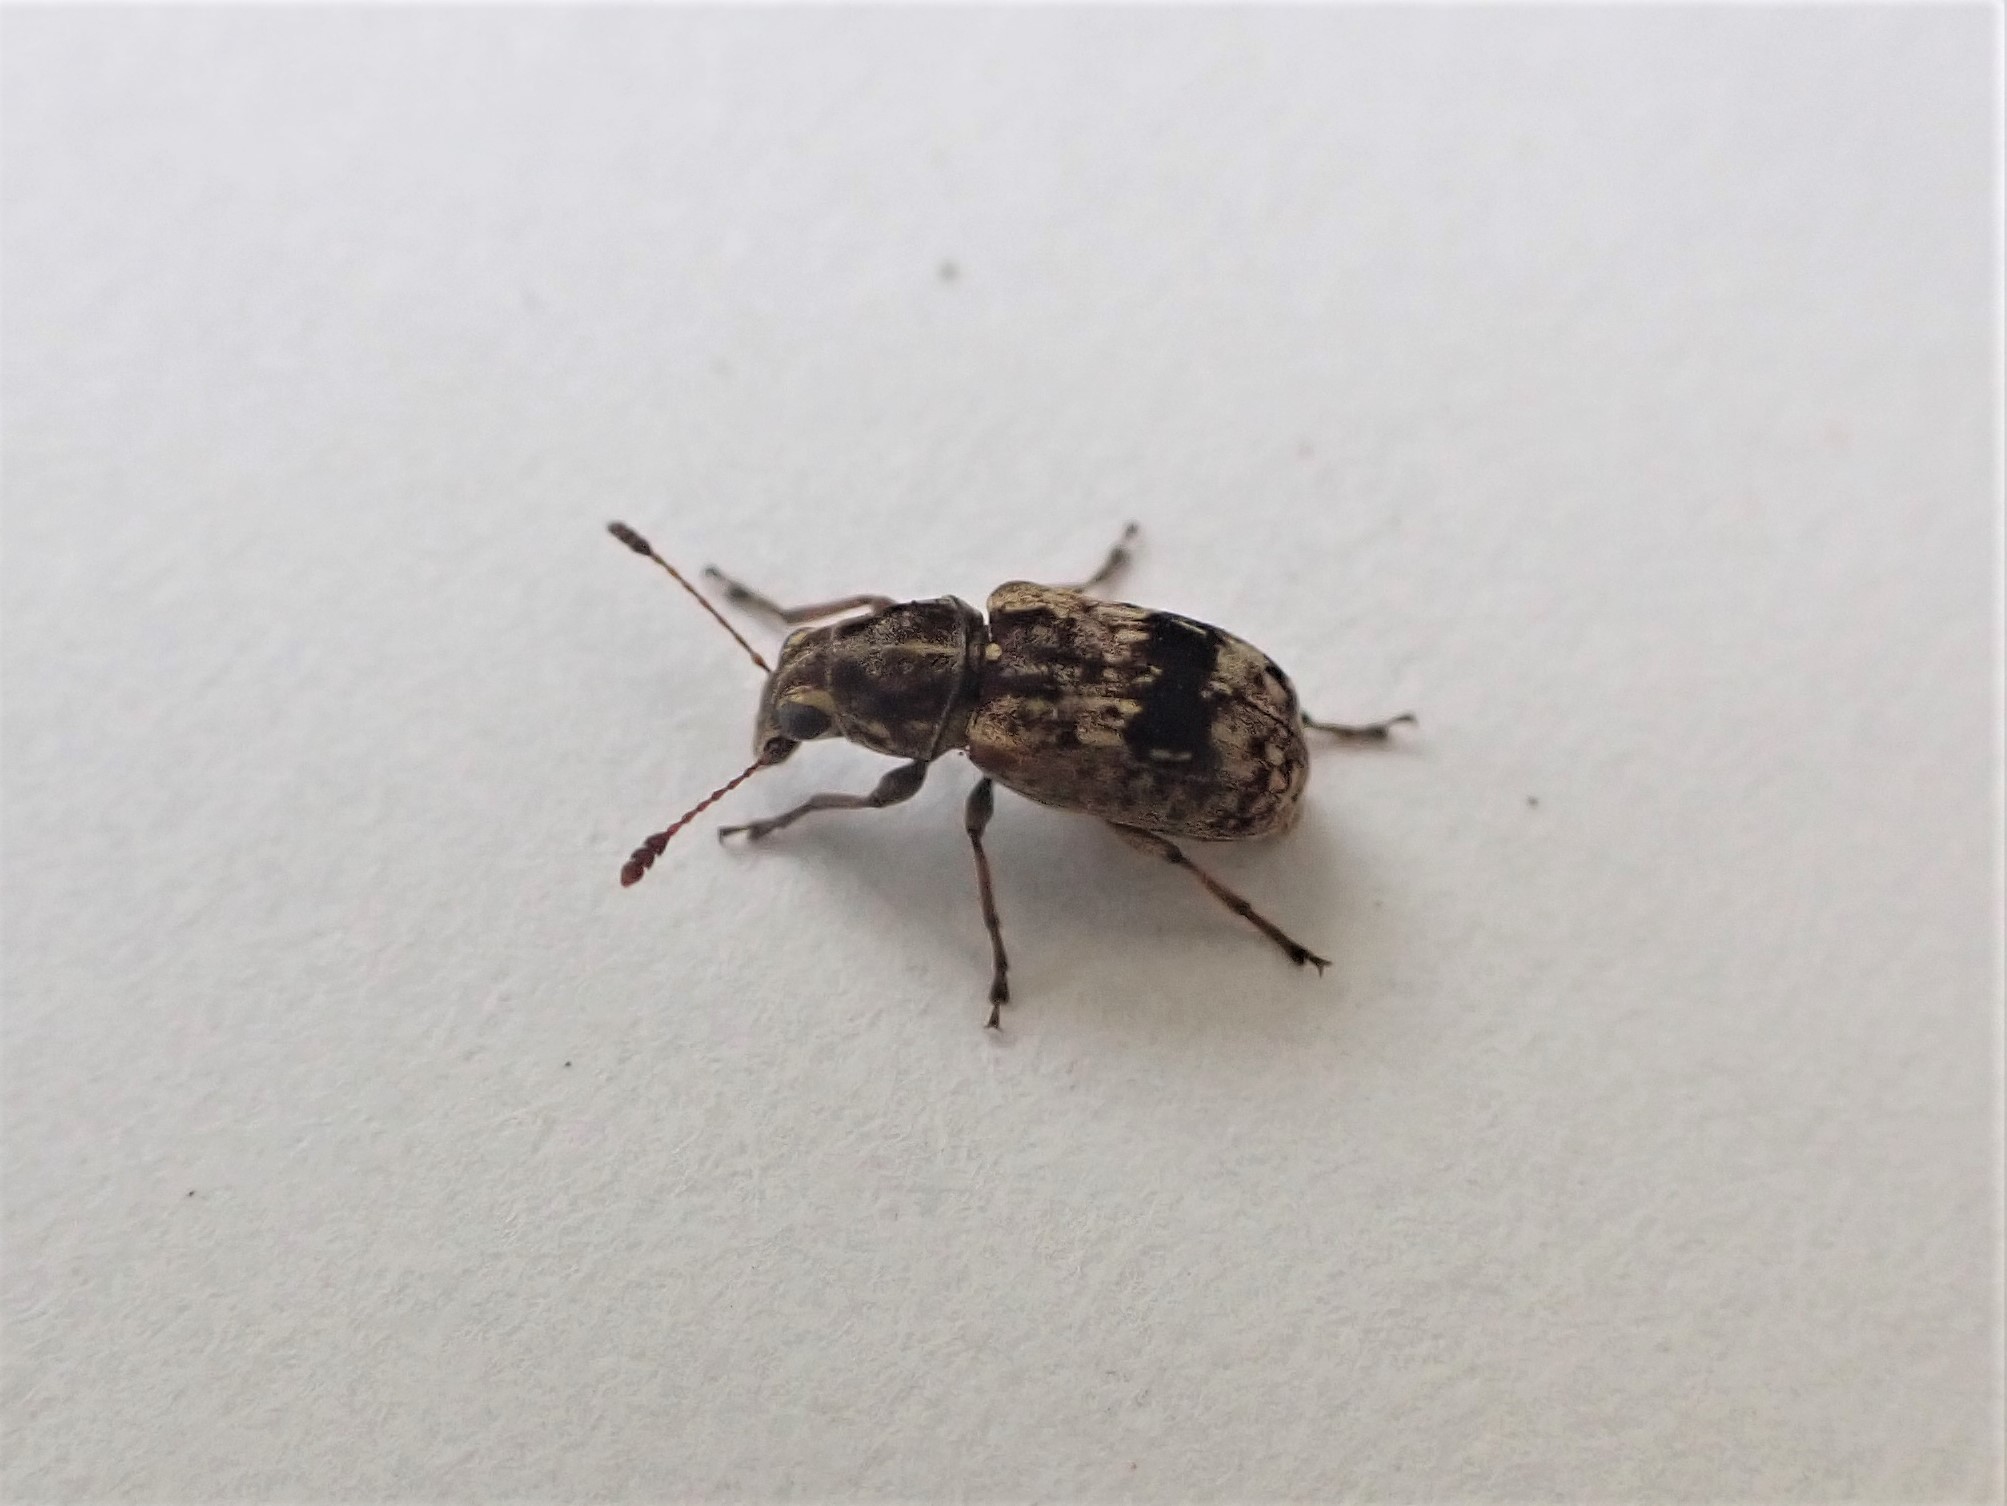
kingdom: Animalia
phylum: Arthropoda
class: Insecta
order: Coleoptera
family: Anthribidae
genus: Cacephatus
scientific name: Cacephatus huttoni
